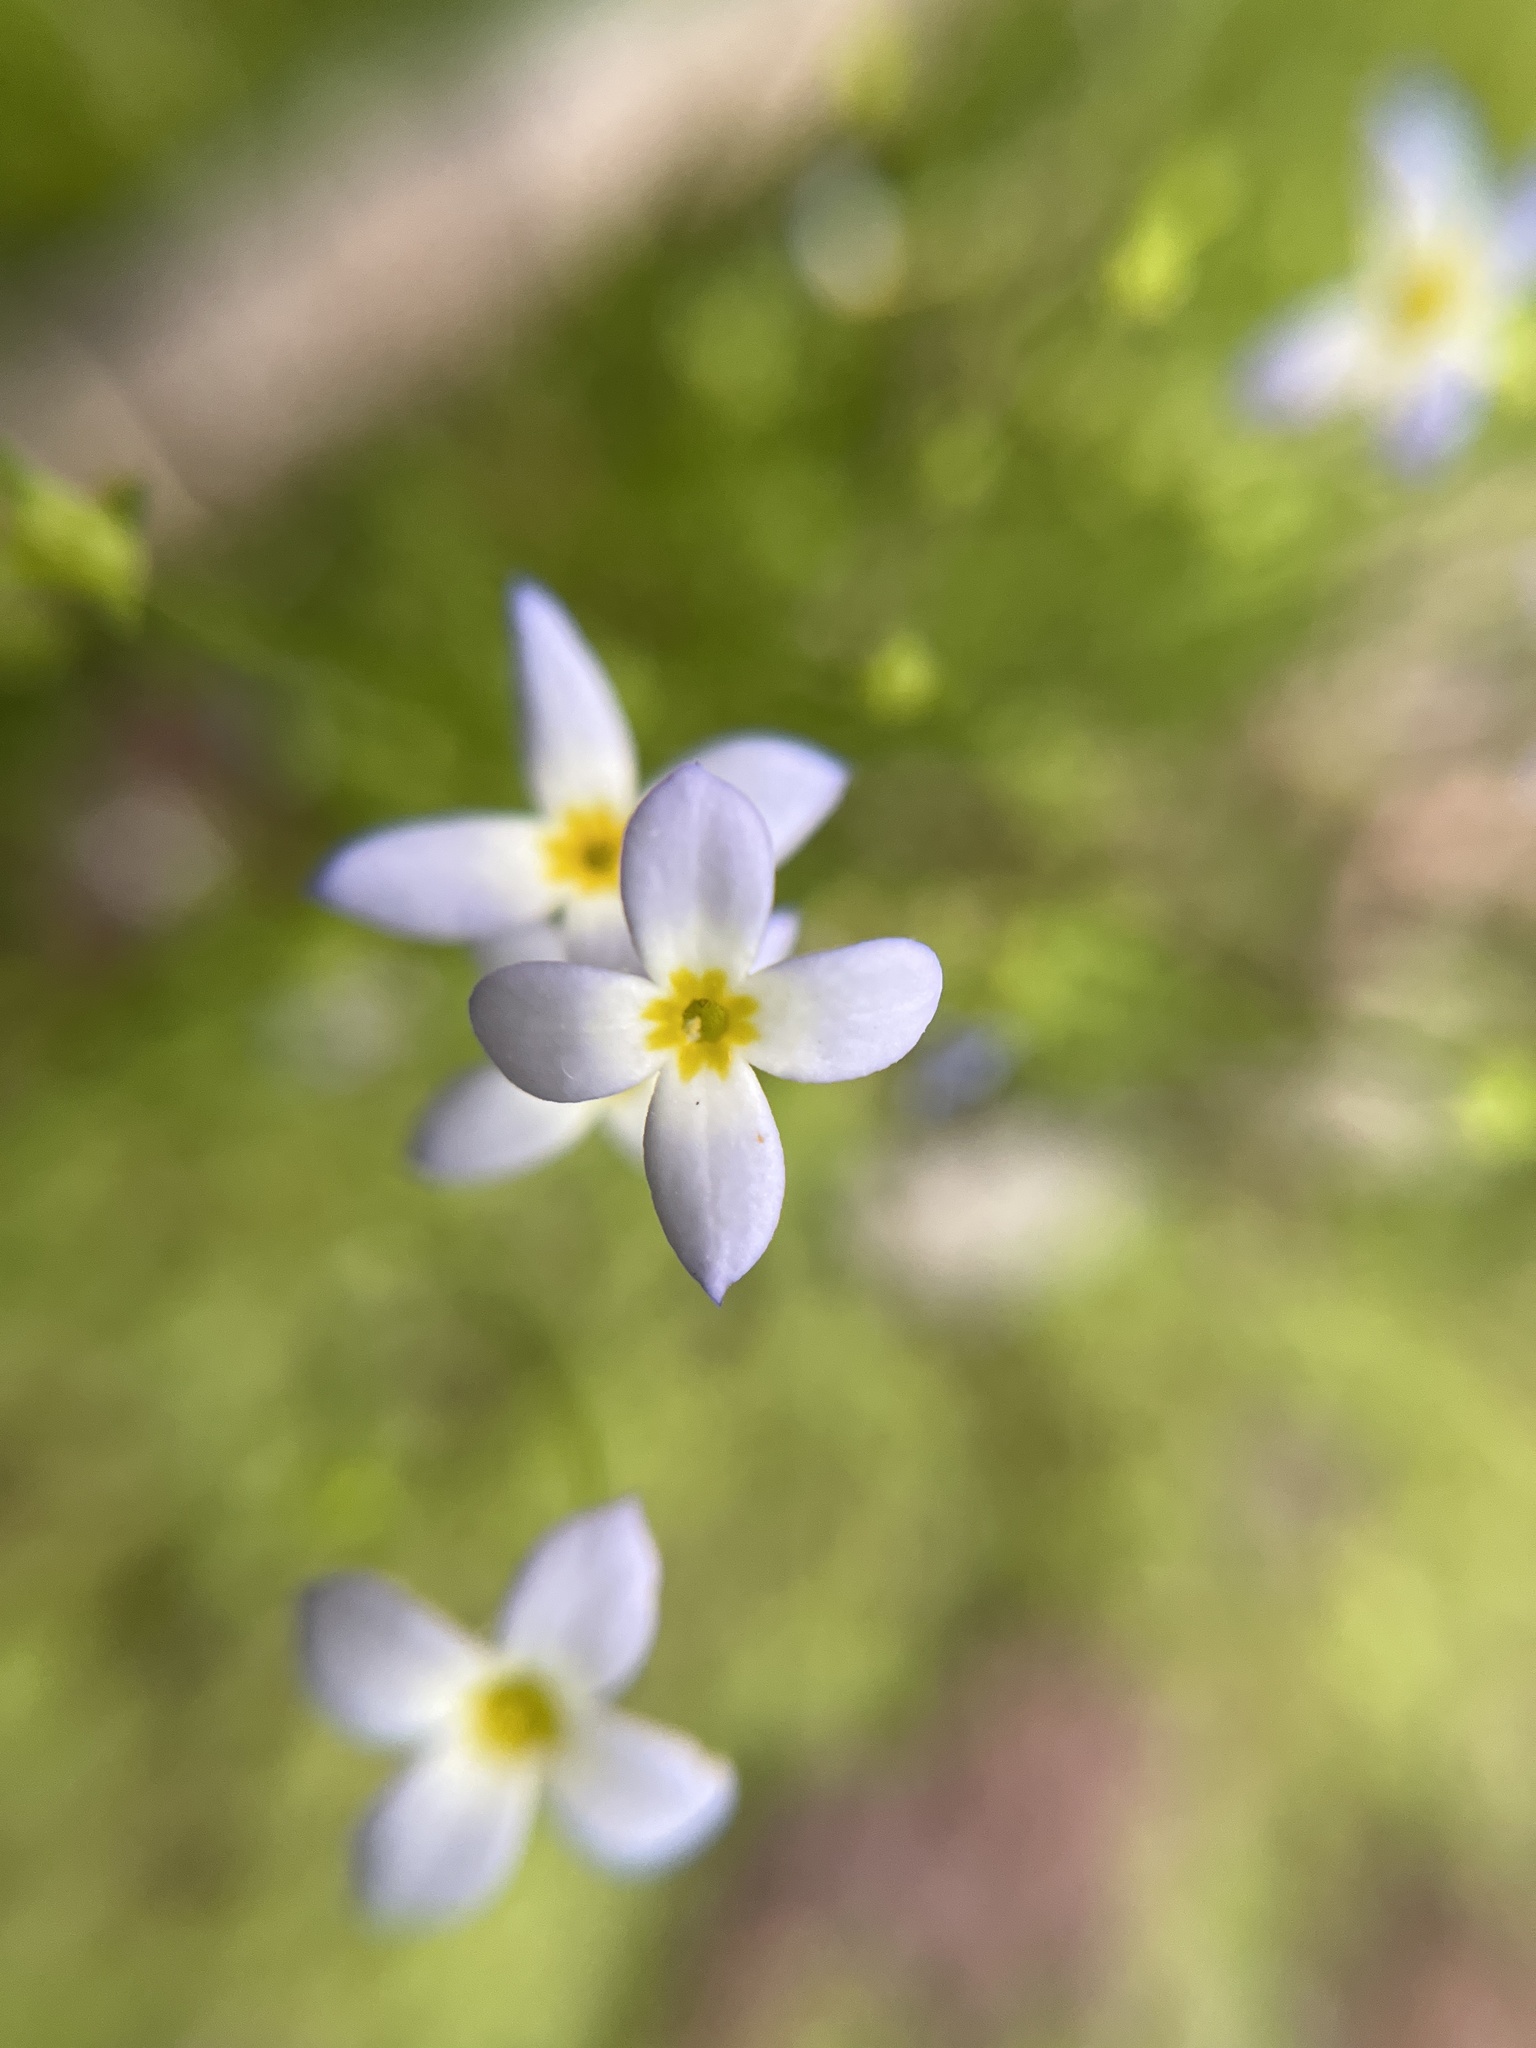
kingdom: Plantae
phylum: Tracheophyta
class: Magnoliopsida
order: Gentianales
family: Rubiaceae
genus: Houstonia
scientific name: Houstonia caerulea
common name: Bluets
